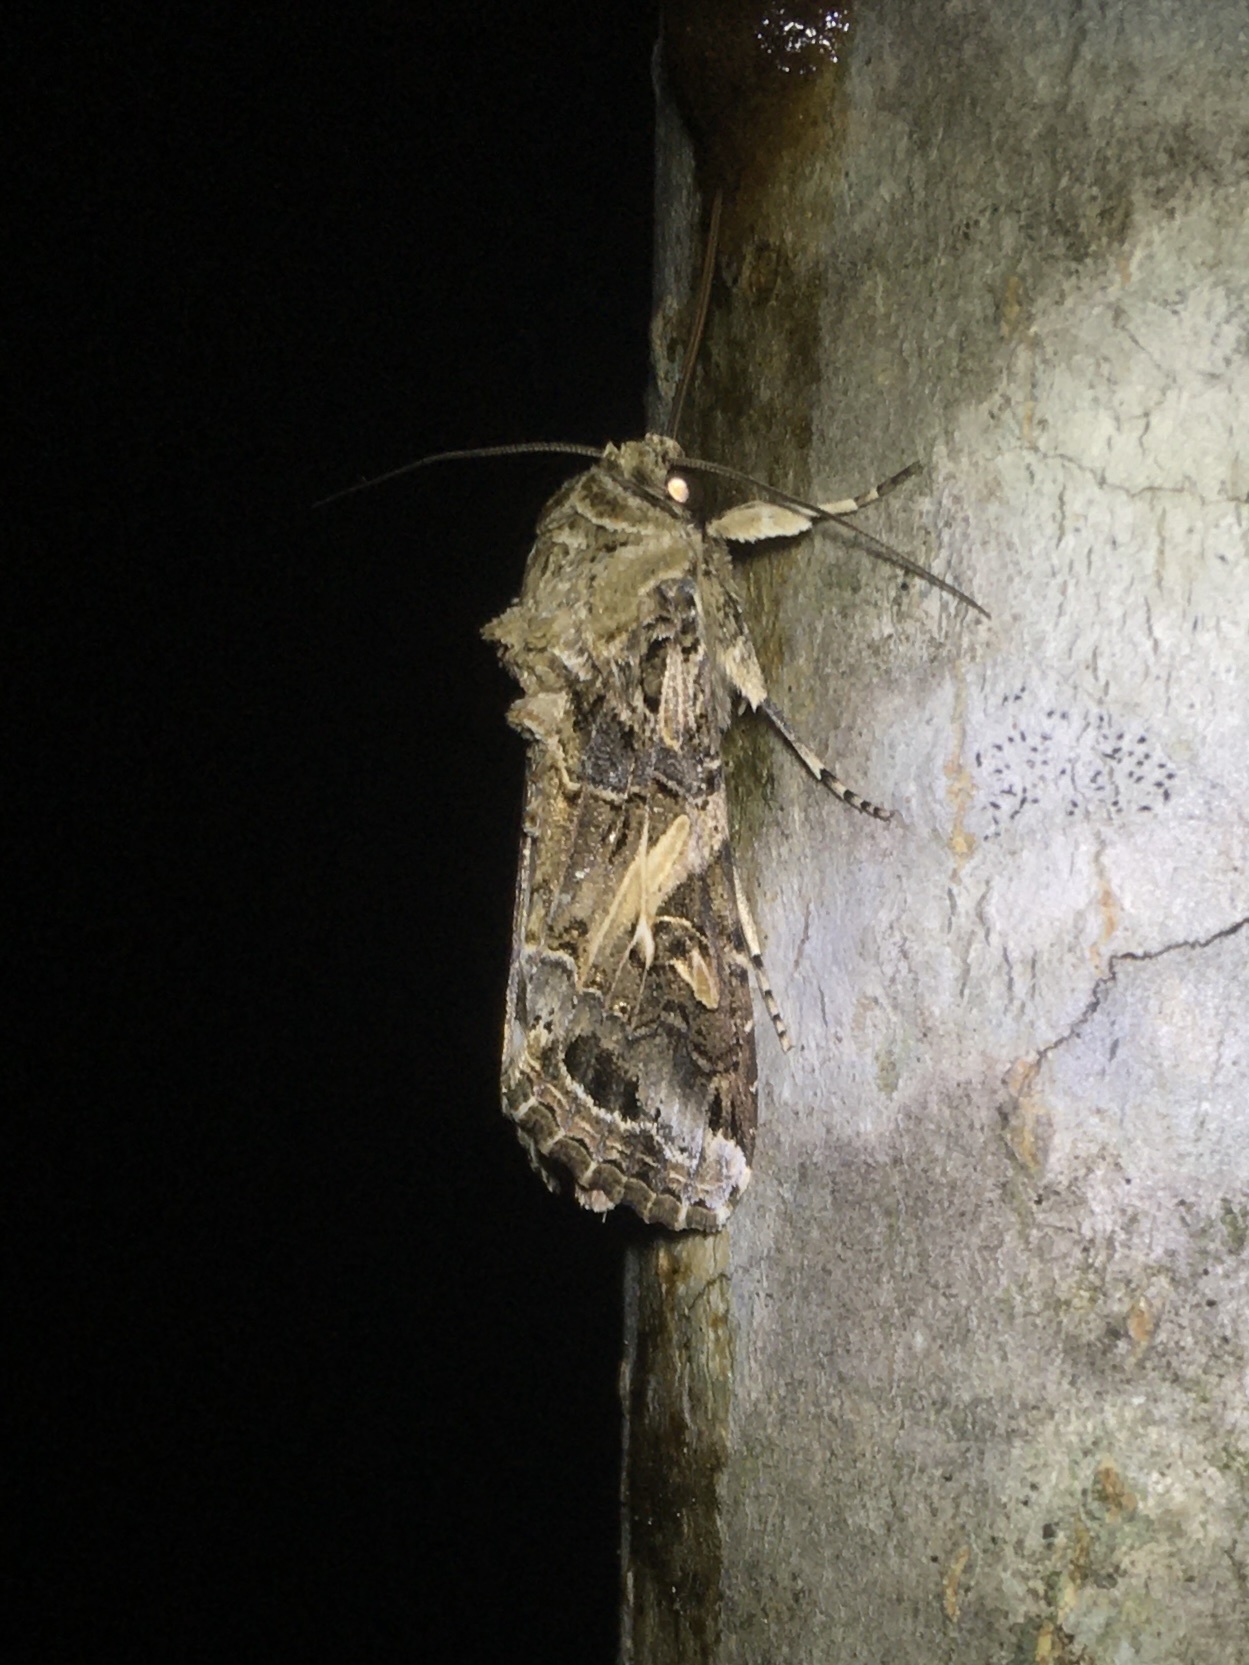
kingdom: Animalia
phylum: Arthropoda
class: Insecta
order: Lepidoptera
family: Noctuidae
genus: Spodoptera
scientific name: Spodoptera ornithogalli
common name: Yellow-striped armyworm
